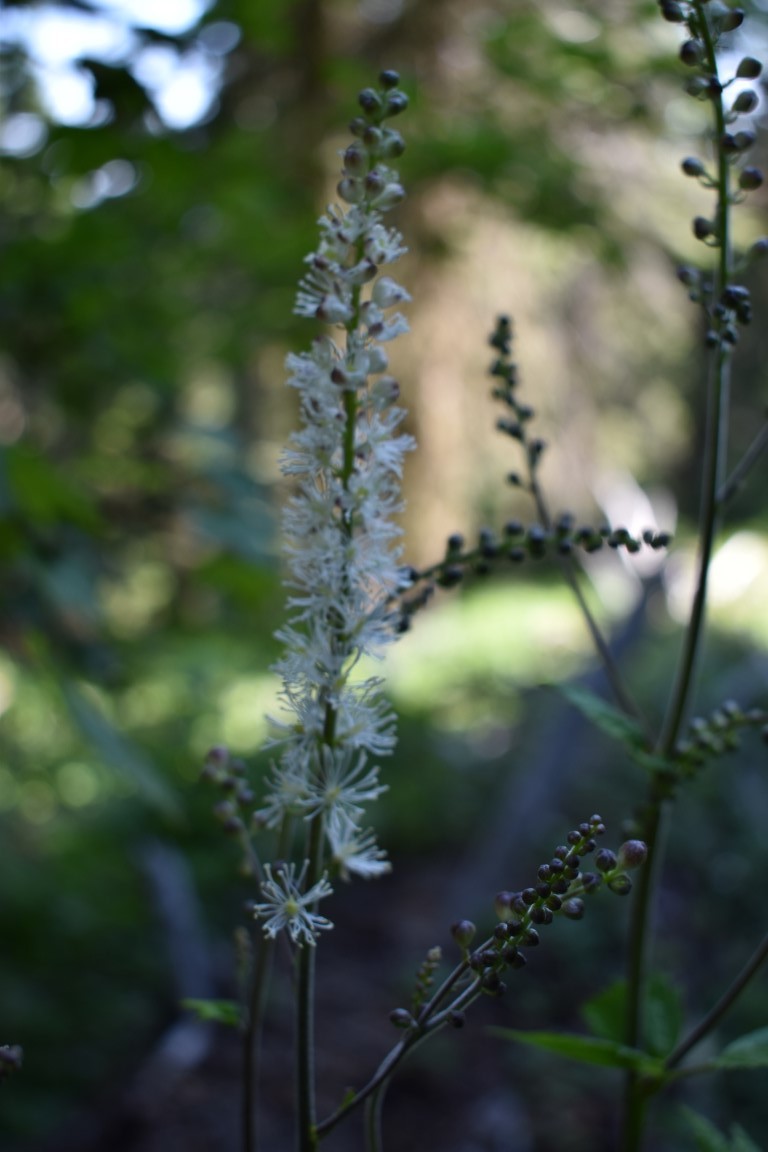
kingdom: Plantae
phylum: Tracheophyta
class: Magnoliopsida
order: Ranunculales
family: Ranunculaceae
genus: Actaea
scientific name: Actaea elata
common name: Tall bugbane
